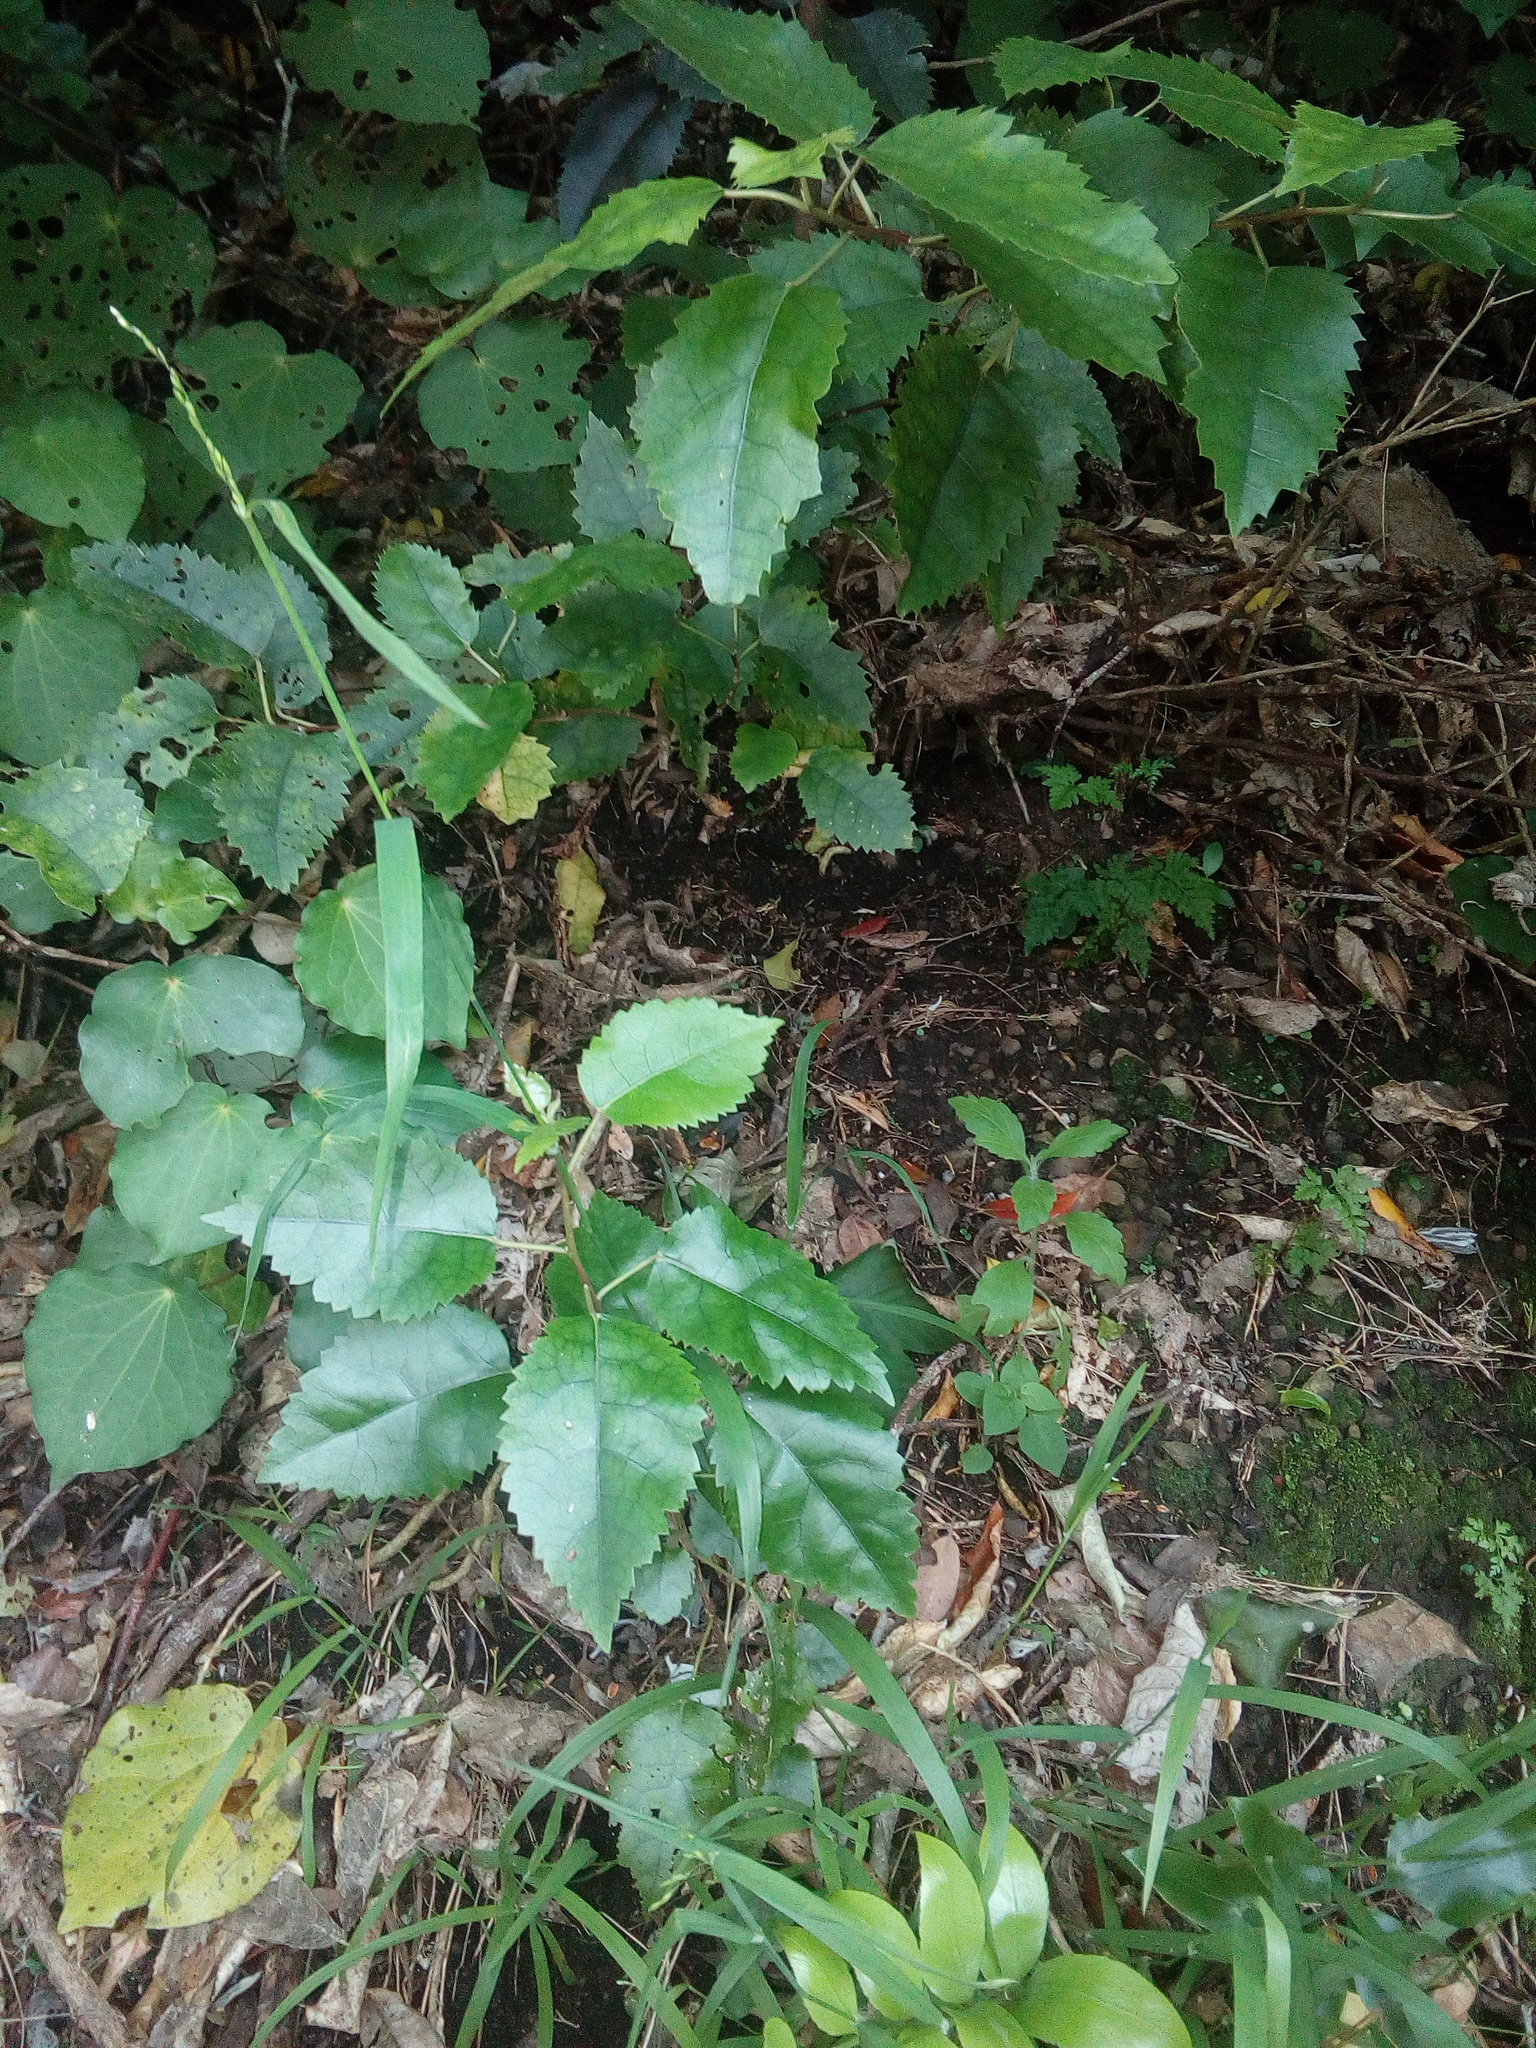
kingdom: Plantae
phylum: Tracheophyta
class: Magnoliopsida
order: Malvales
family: Malvaceae
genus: Hoheria
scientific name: Hoheria populnea
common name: Lacebark
